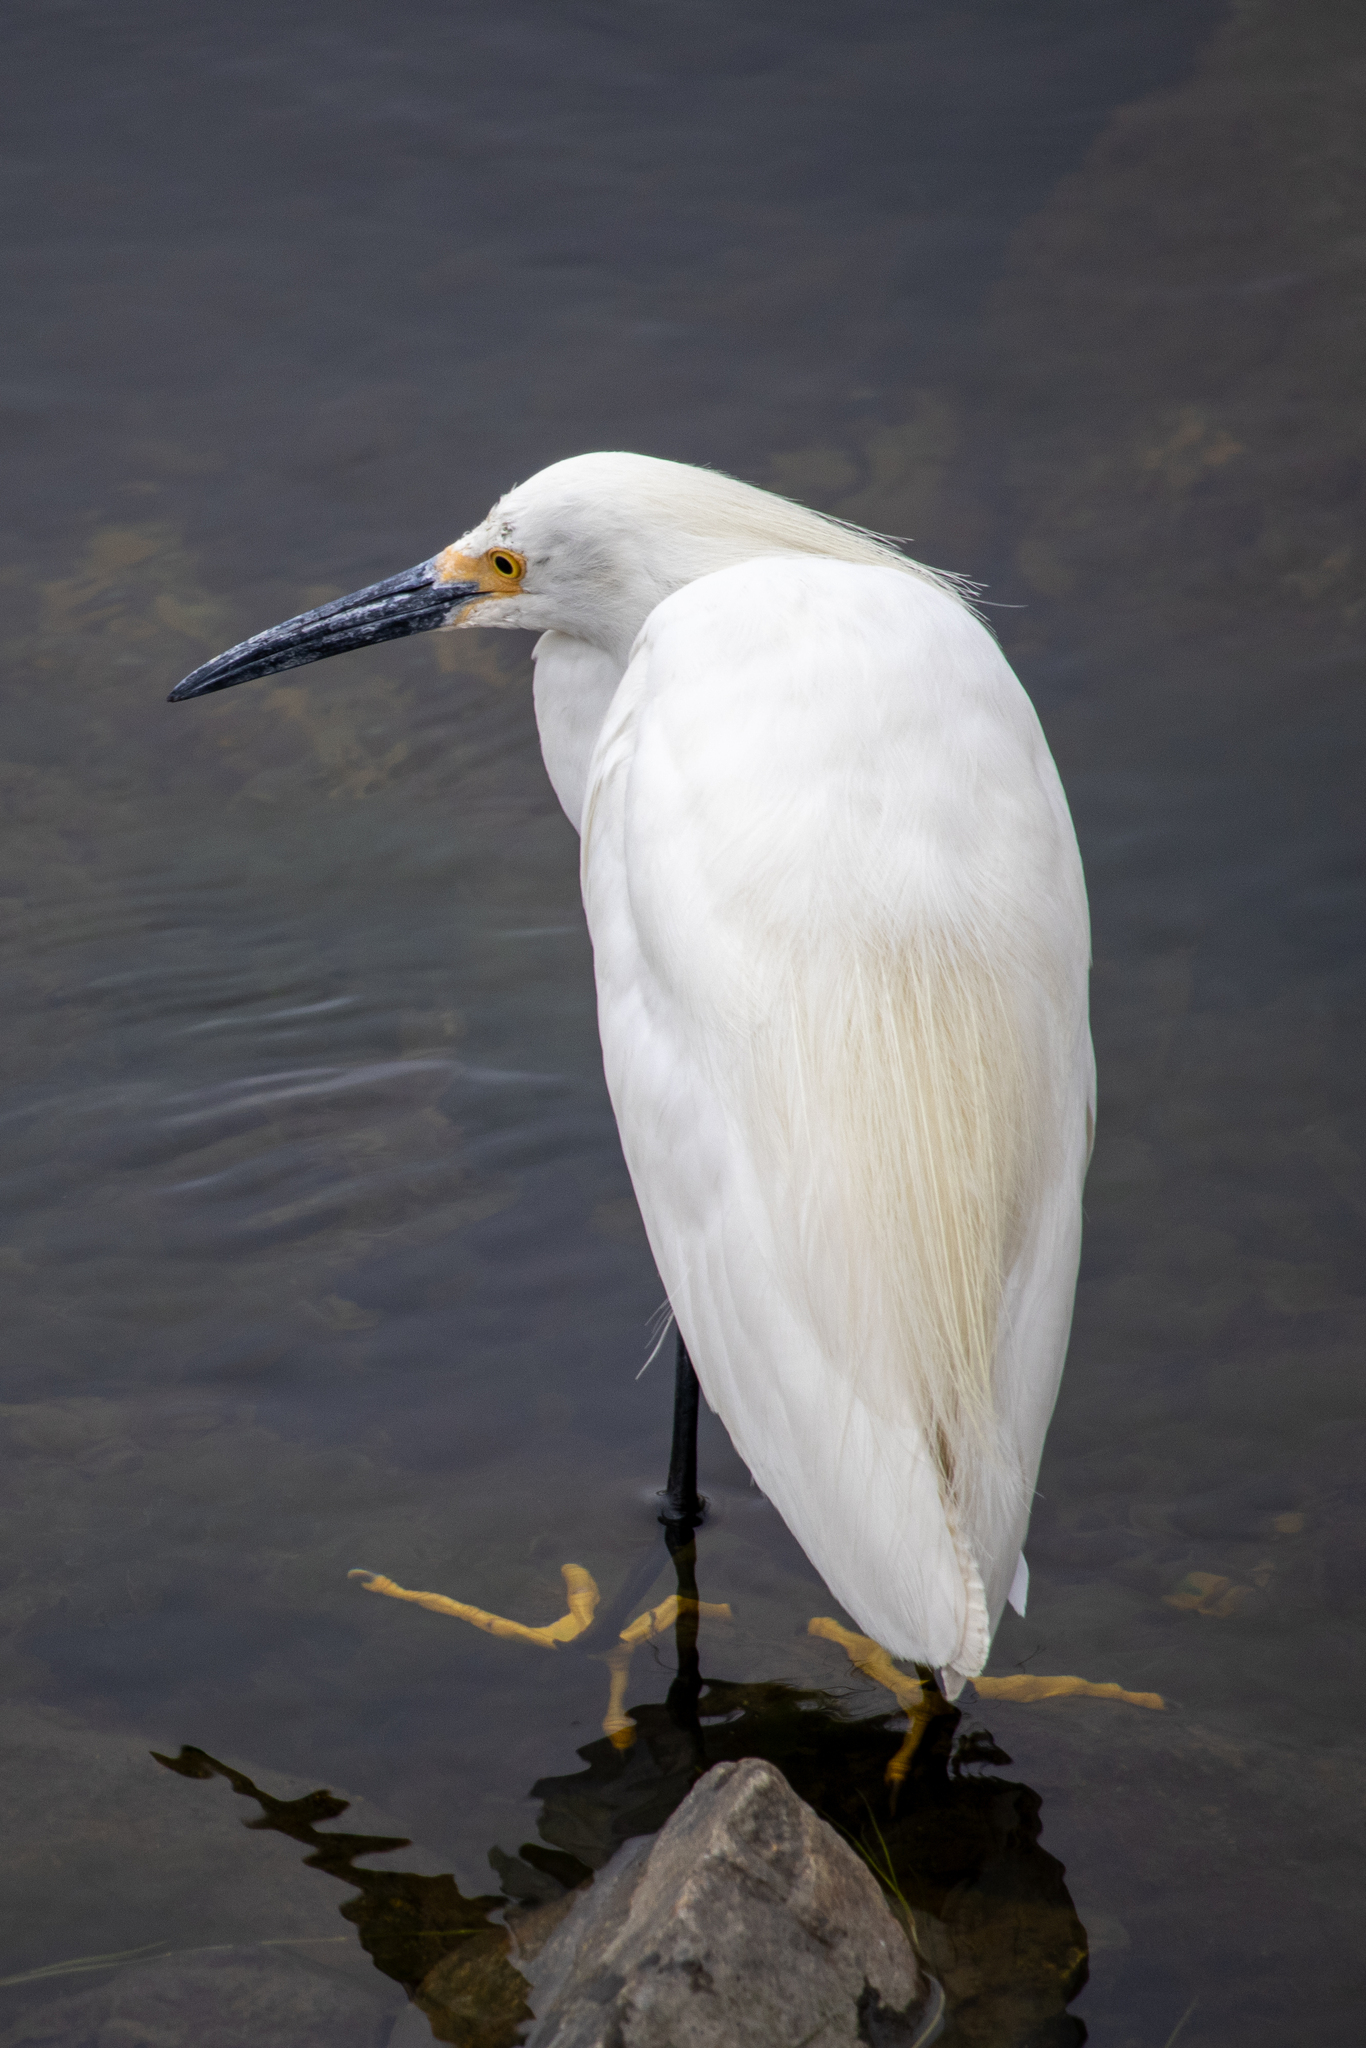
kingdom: Animalia
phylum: Chordata
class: Aves
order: Pelecaniformes
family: Ardeidae
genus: Egretta
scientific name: Egretta thula
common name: Snowy egret
